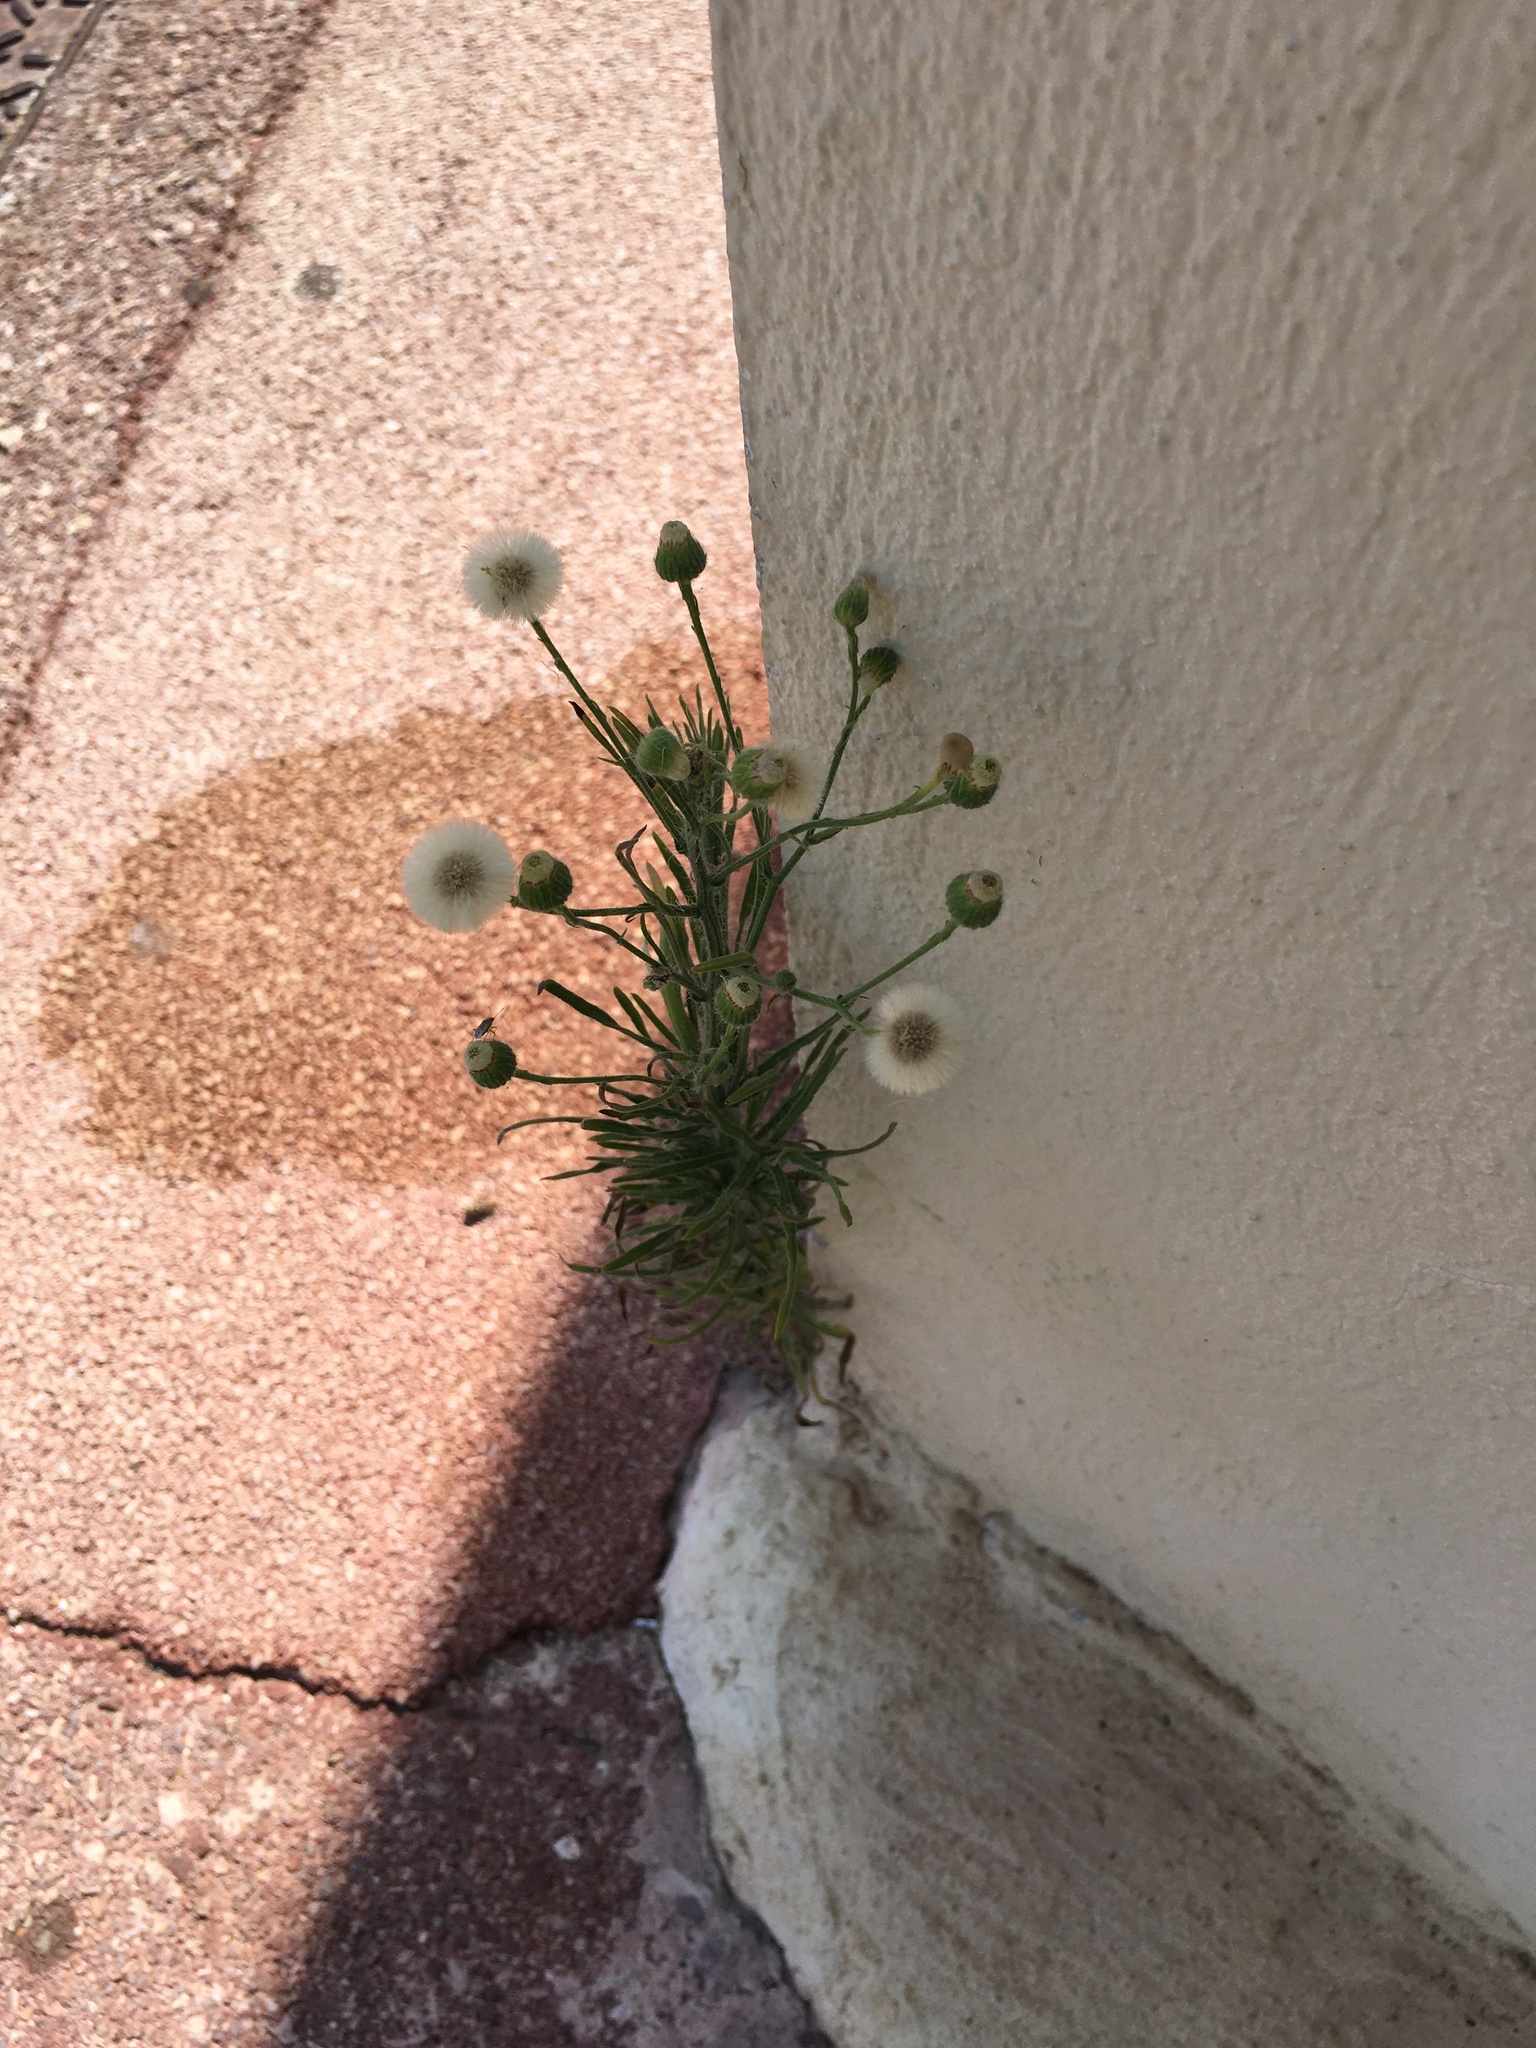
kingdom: Plantae
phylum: Tracheophyta
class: Magnoliopsida
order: Asterales
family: Asteraceae
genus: Erigeron
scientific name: Erigeron bonariensis
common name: Argentine fleabane
